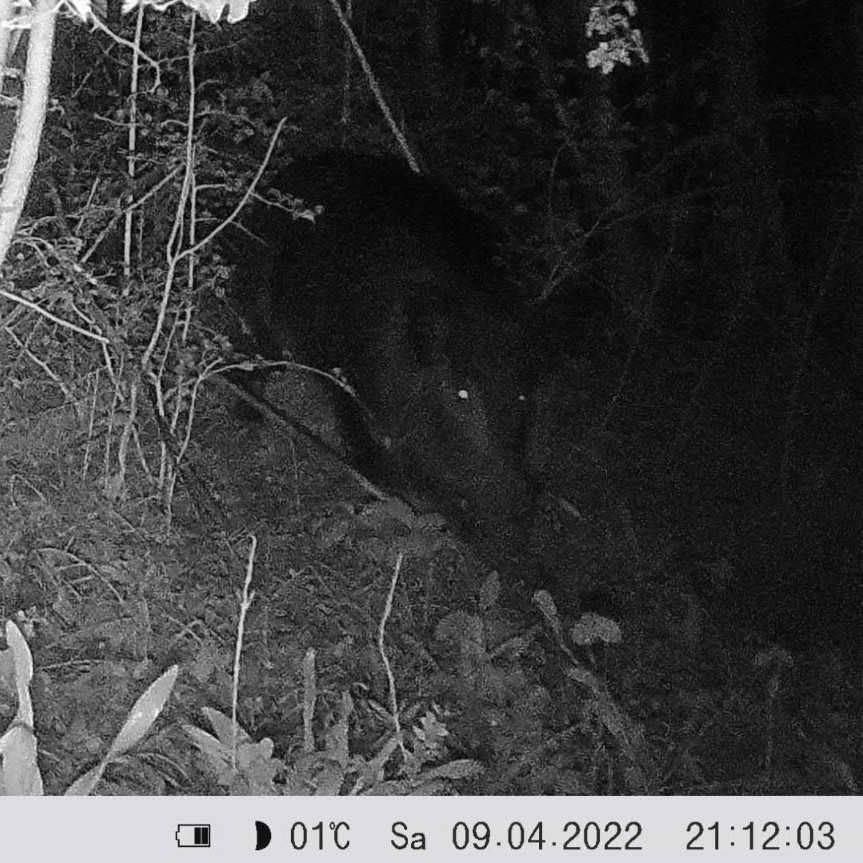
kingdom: Animalia
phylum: Chordata
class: Mammalia
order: Artiodactyla
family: Suidae
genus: Sus
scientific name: Sus scrofa
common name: Wild boar
